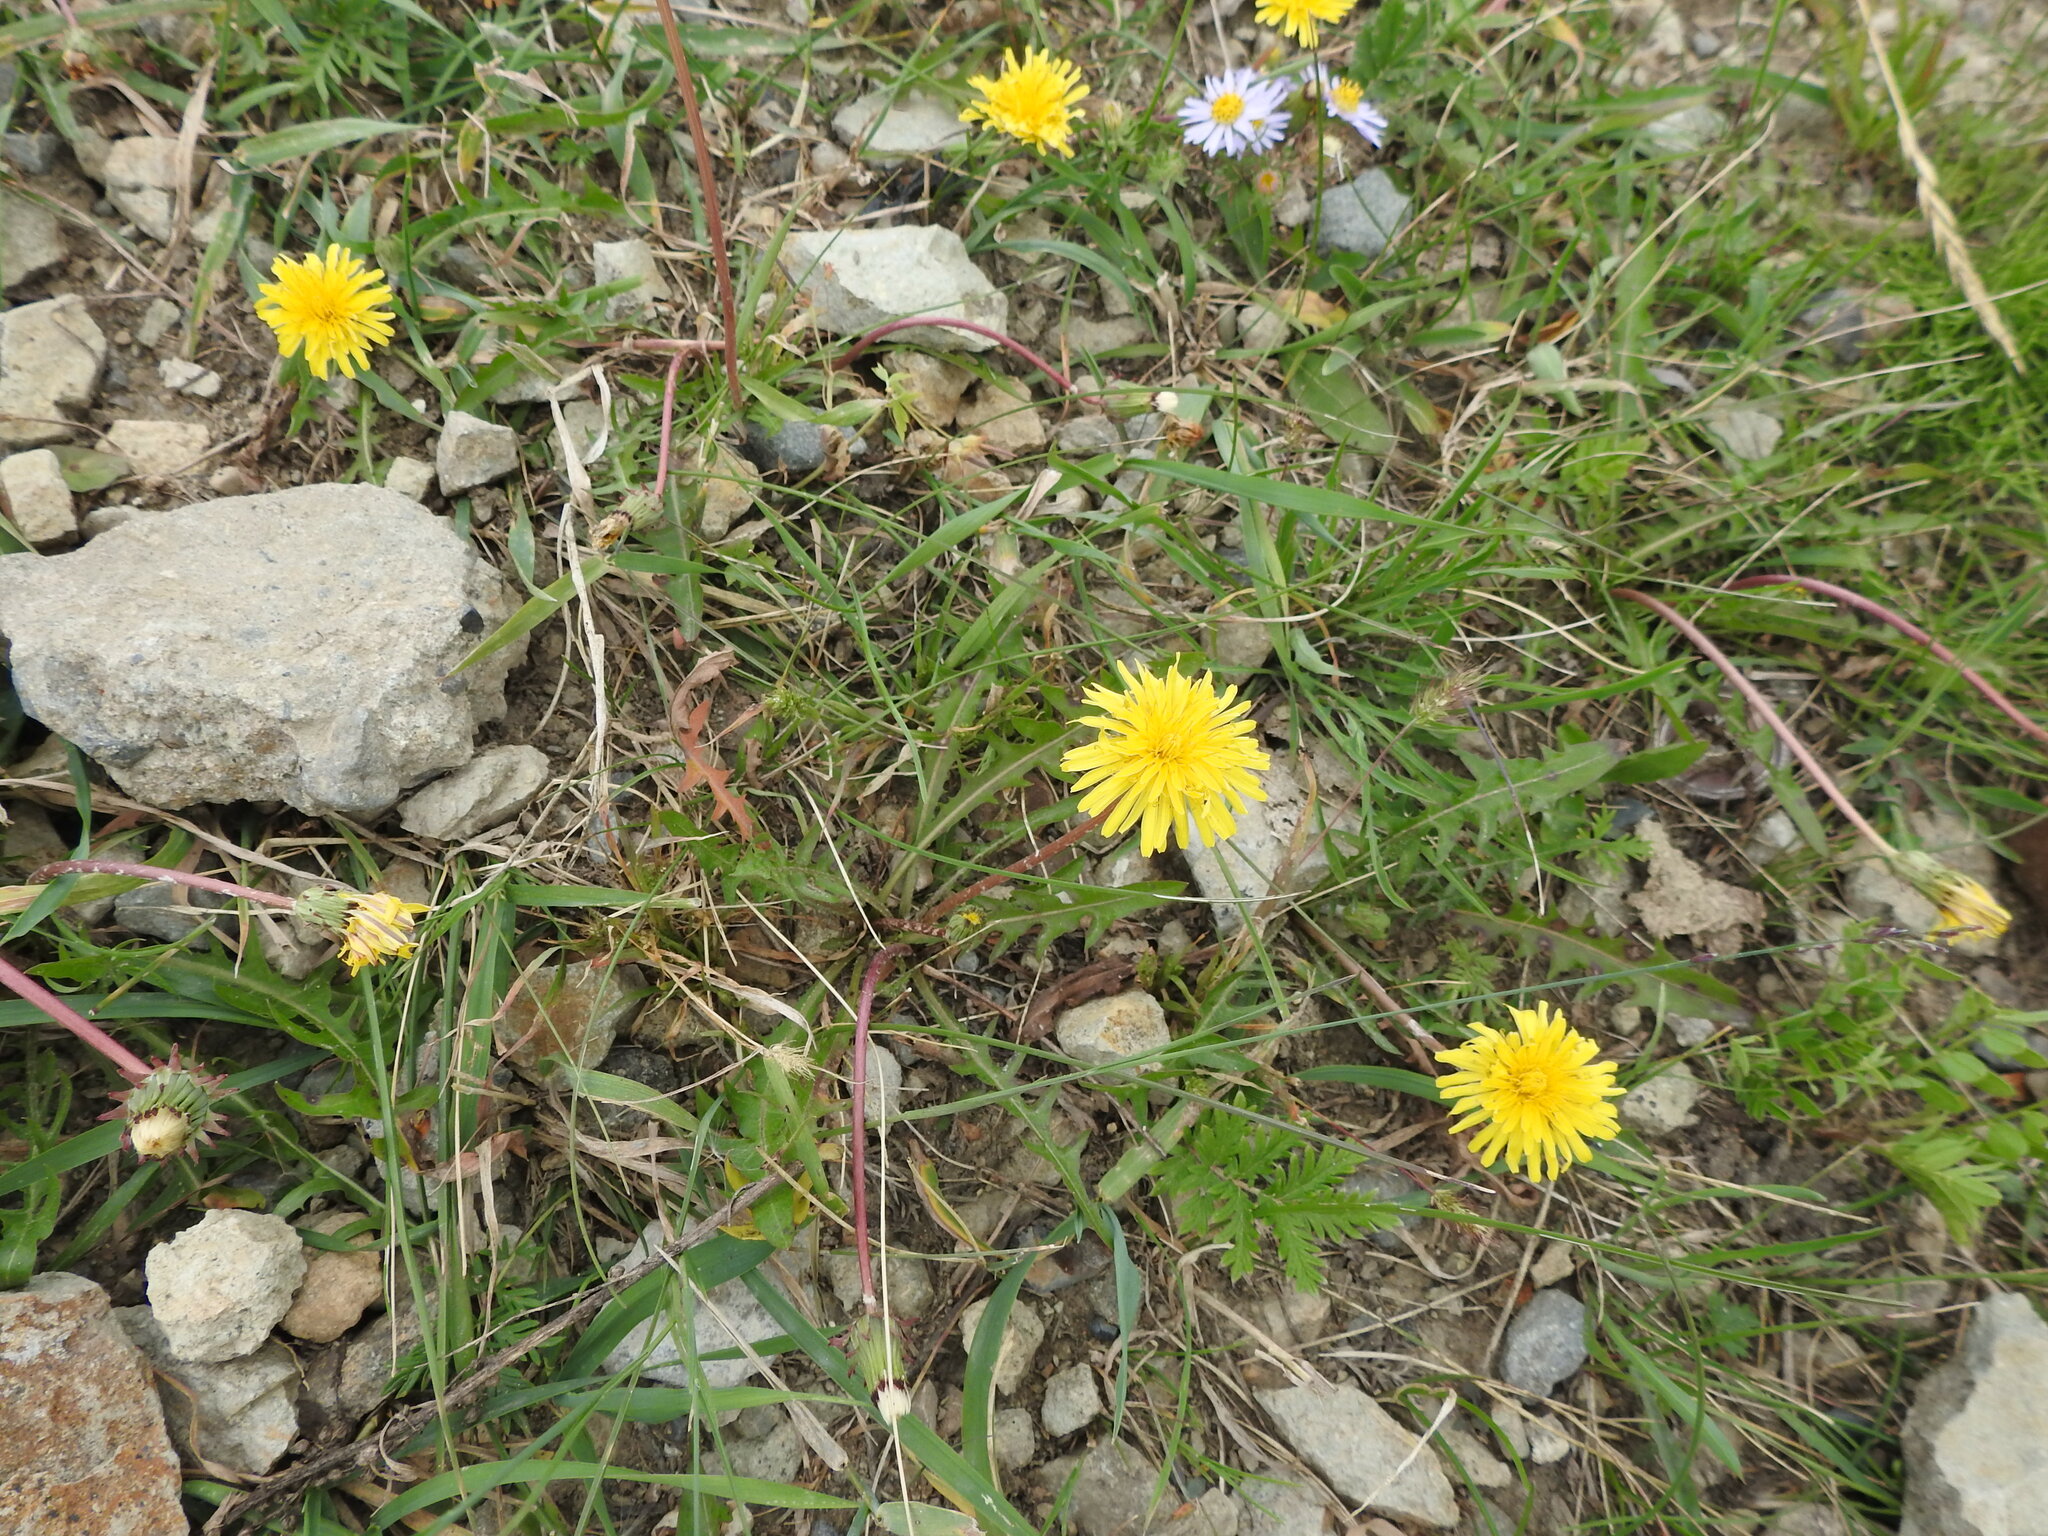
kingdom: Plantae
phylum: Tracheophyta
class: Magnoliopsida
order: Asterales
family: Asteraceae
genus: Taraxacum
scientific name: Taraxacum officinale
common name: Common dandelion
